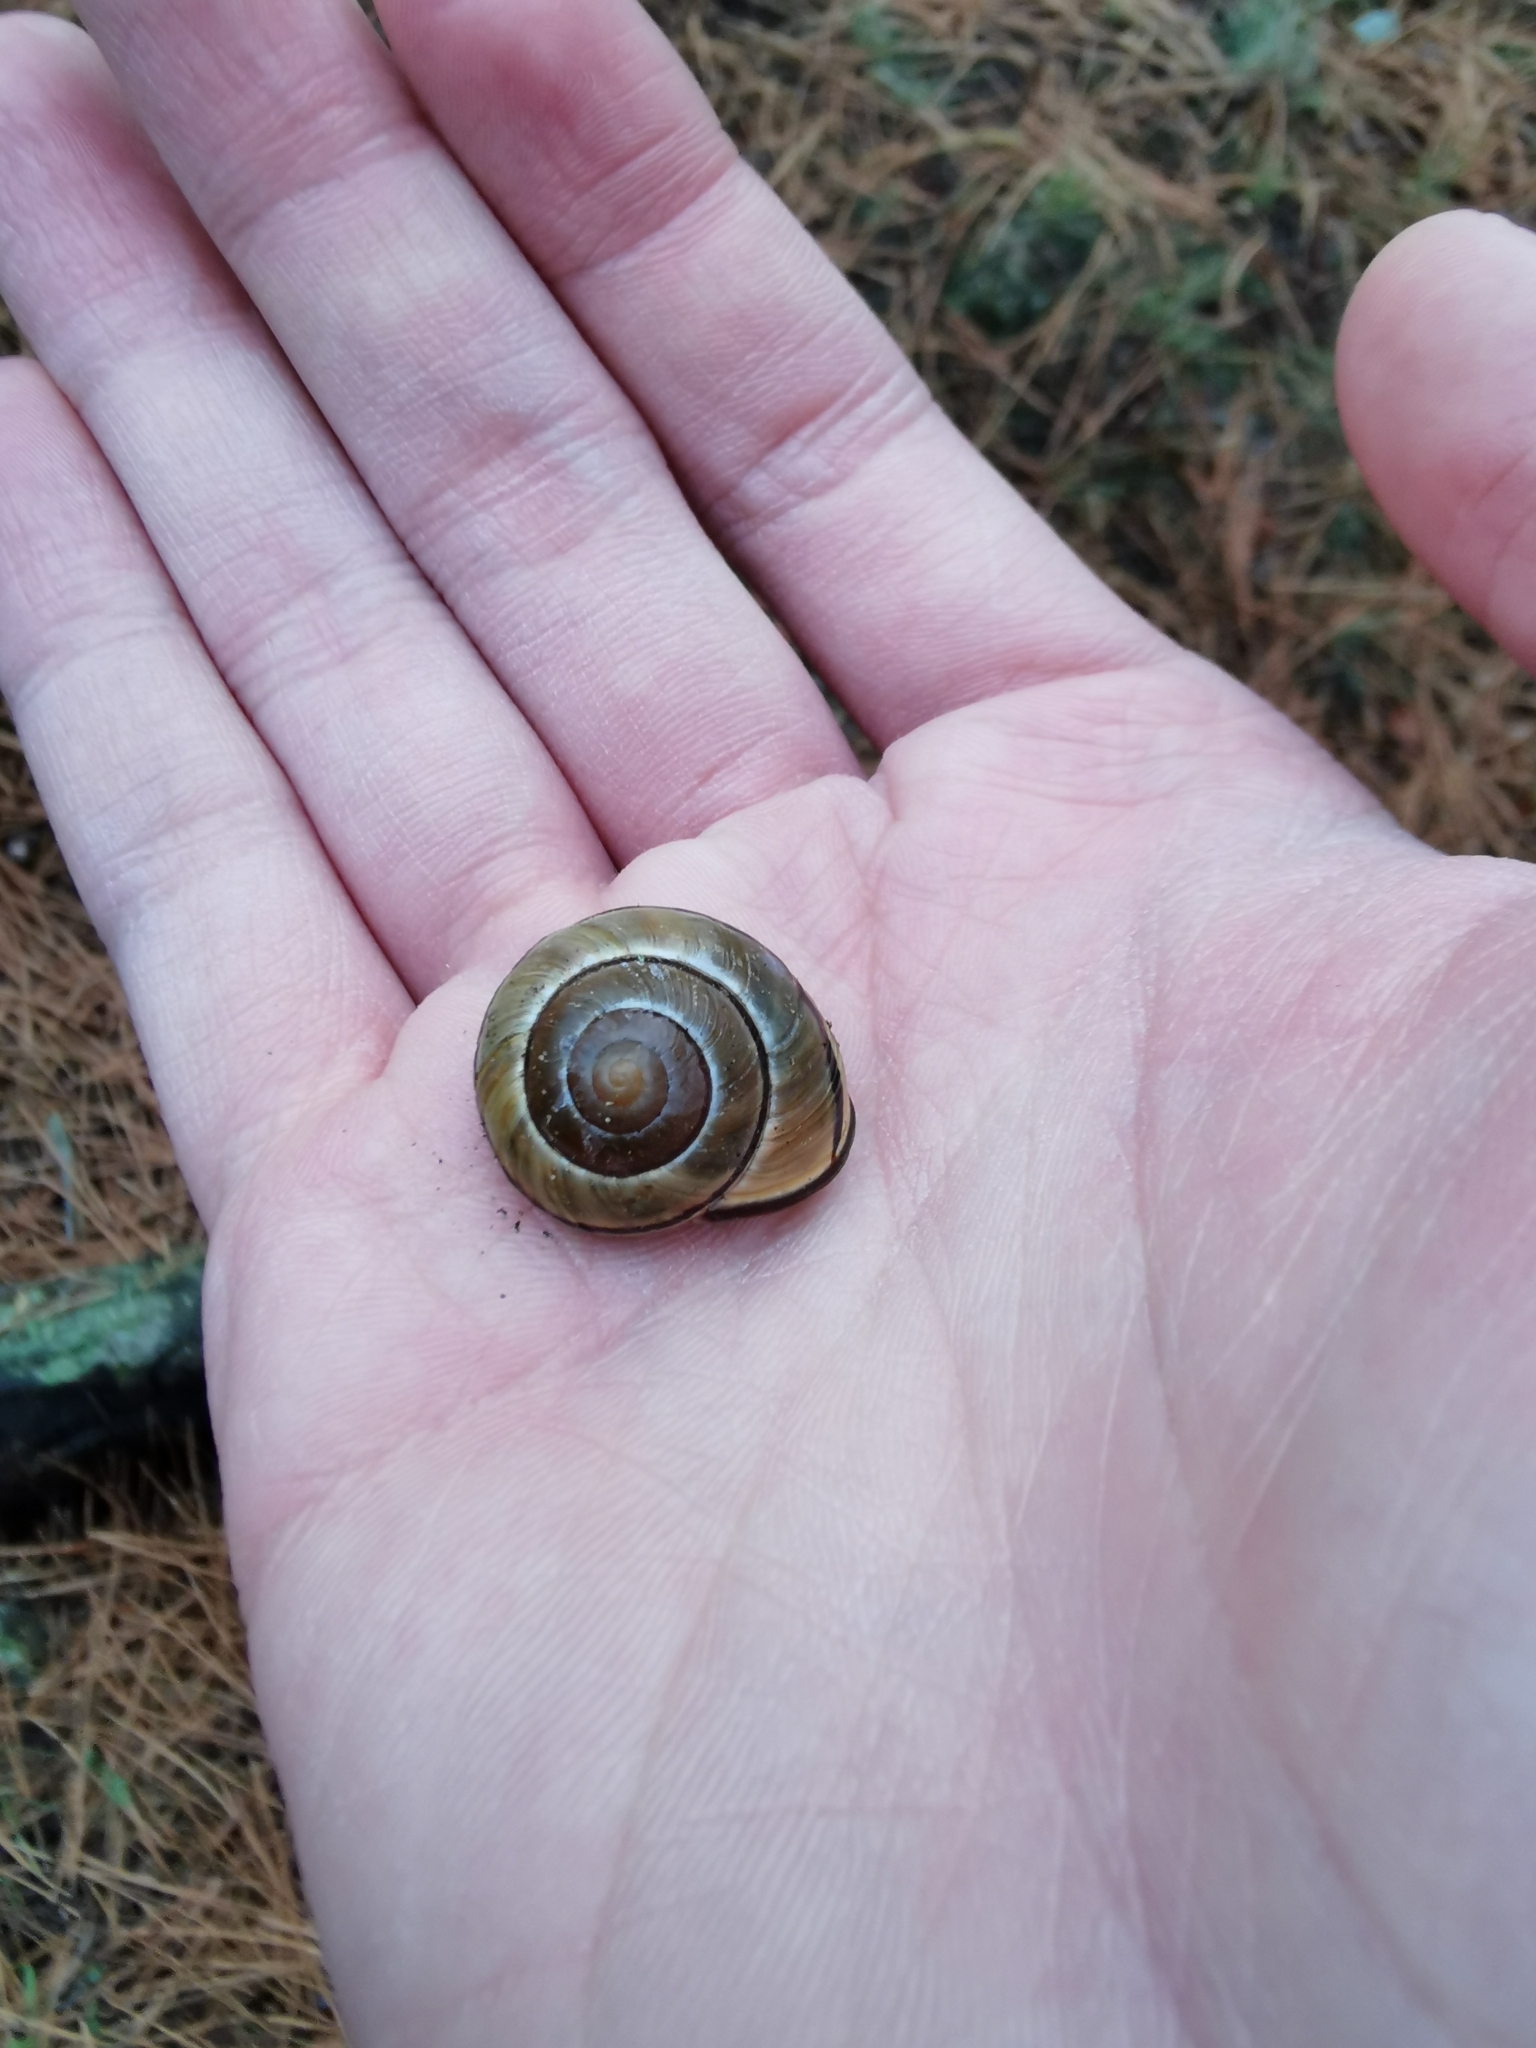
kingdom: Animalia
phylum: Mollusca
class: Gastropoda
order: Stylommatophora
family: Helicidae
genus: Cepaea
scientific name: Cepaea nemoralis
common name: Grovesnail
